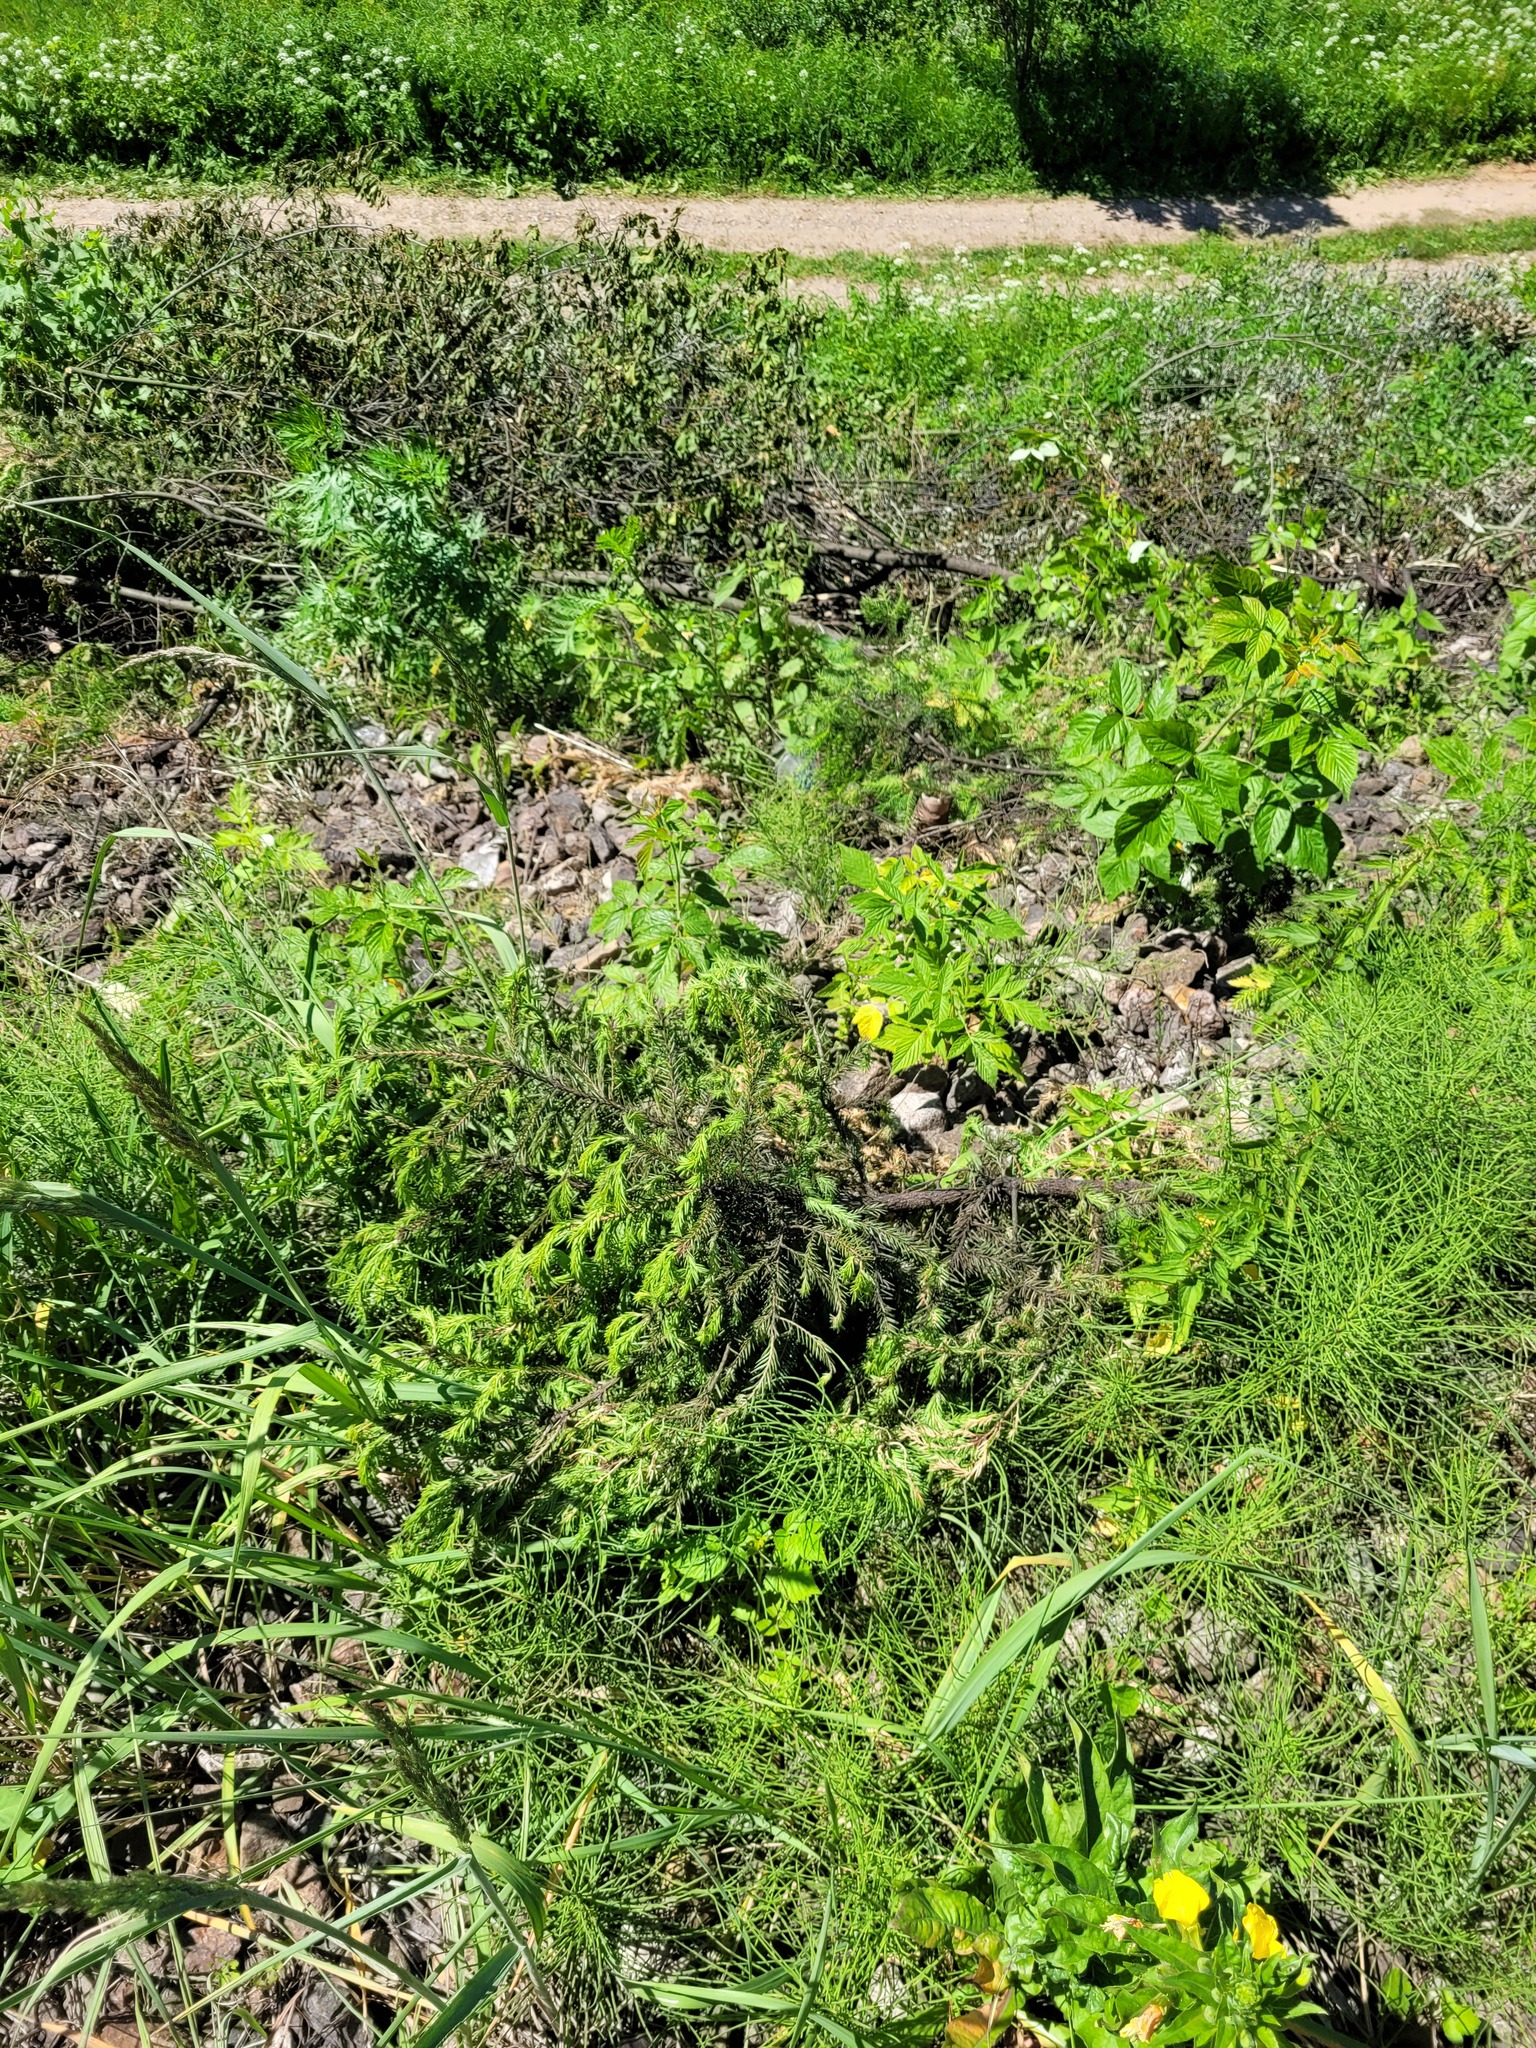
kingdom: Plantae
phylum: Tracheophyta
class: Pinopsida
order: Pinales
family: Pinaceae
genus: Picea
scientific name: Picea abies
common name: Norway spruce
